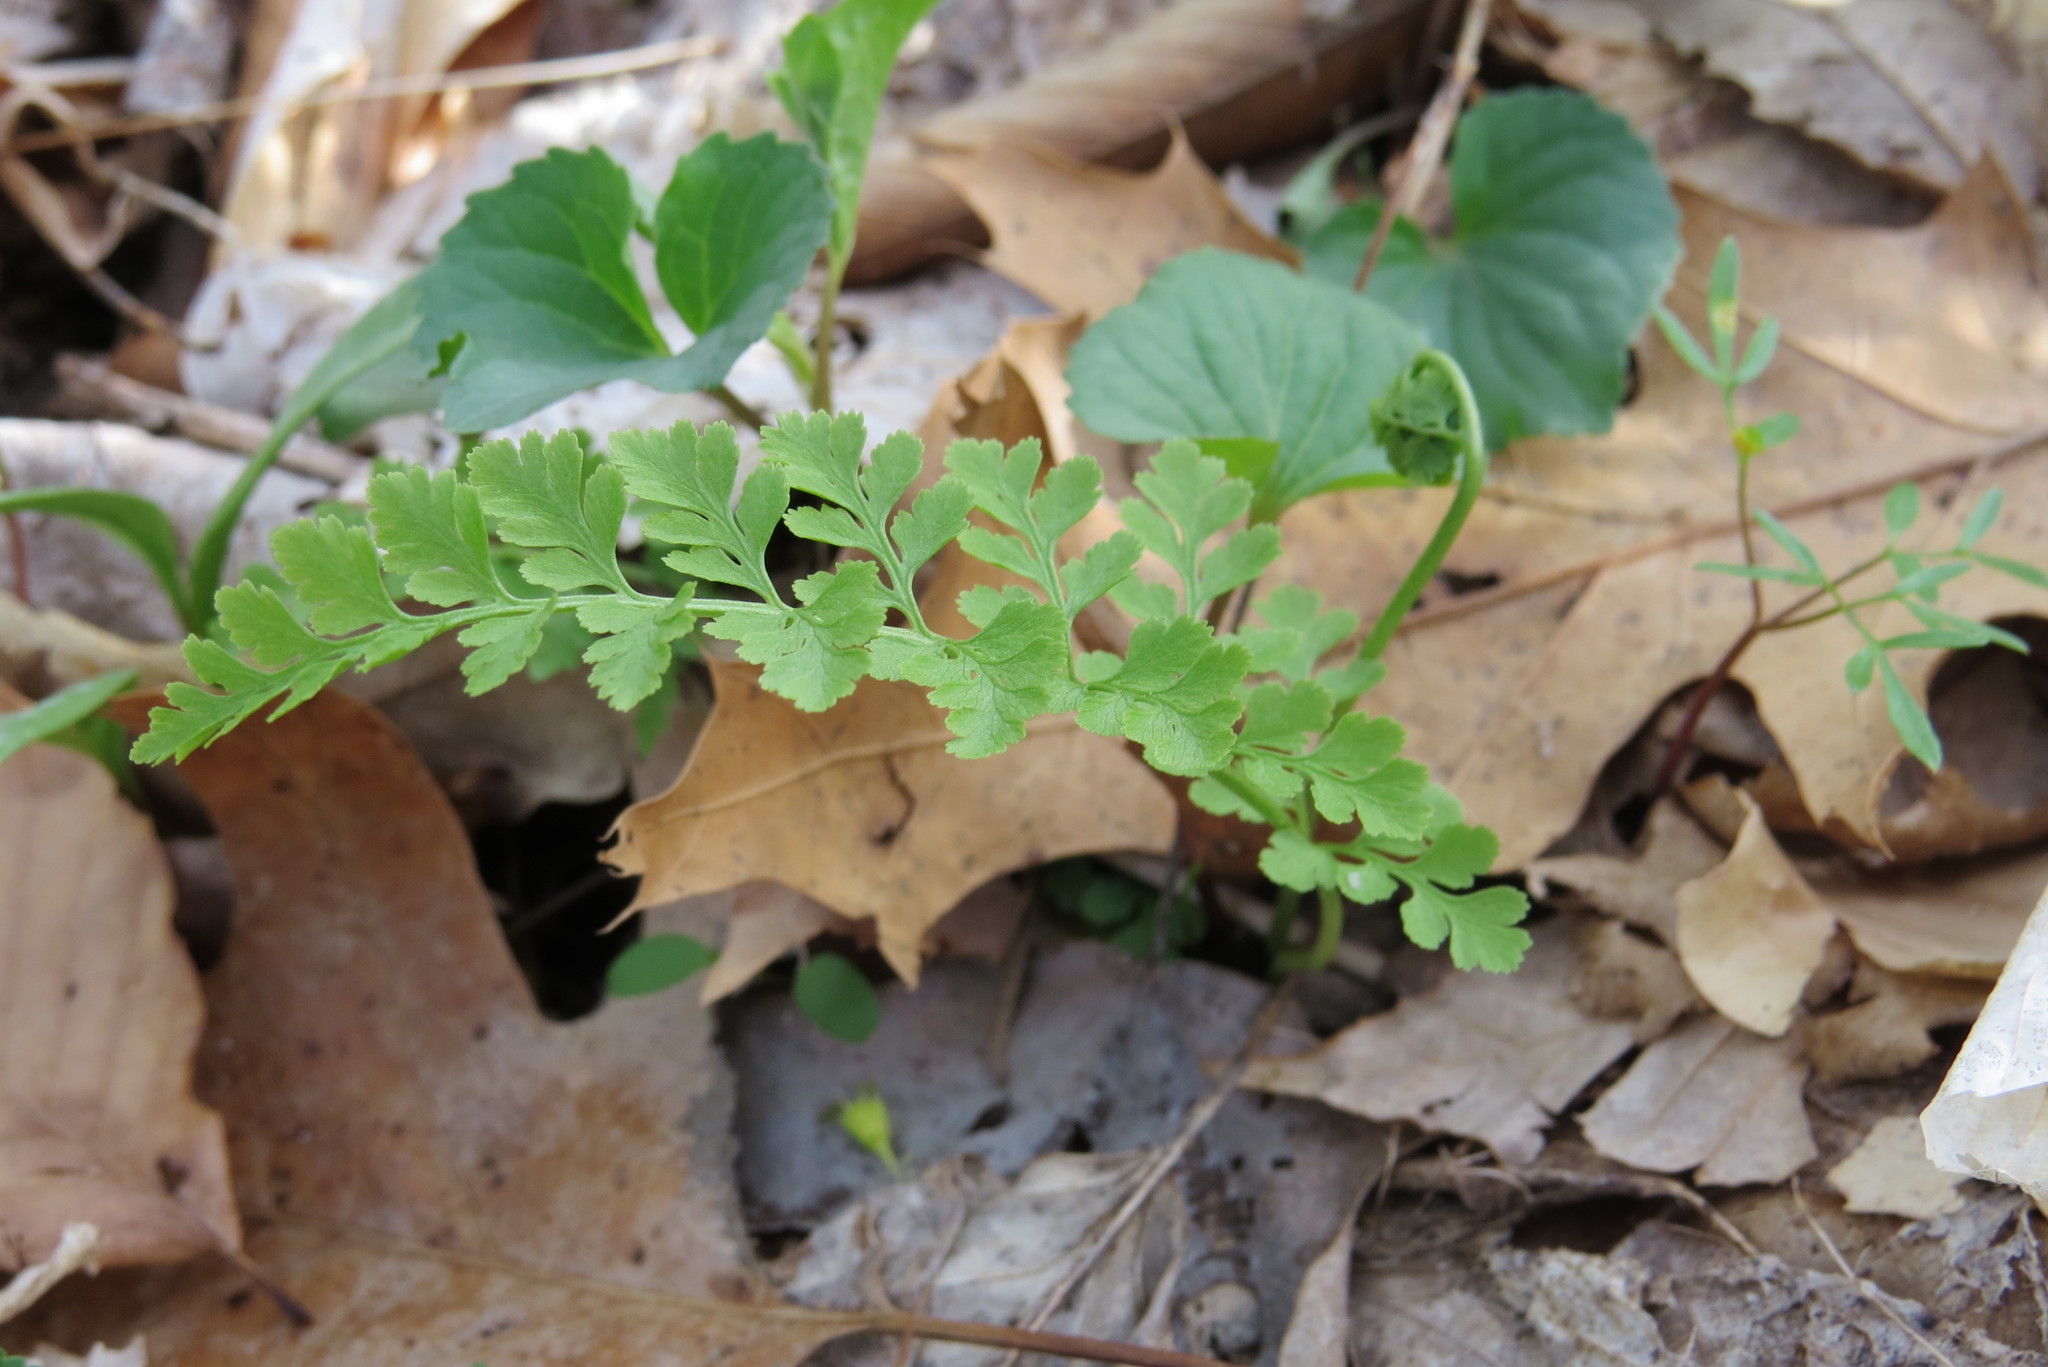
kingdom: Plantae
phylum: Tracheophyta
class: Polypodiopsida
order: Polypodiales
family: Cystopteridaceae
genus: Cystopteris
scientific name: Cystopteris protrusa
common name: Lowland brittle fern
